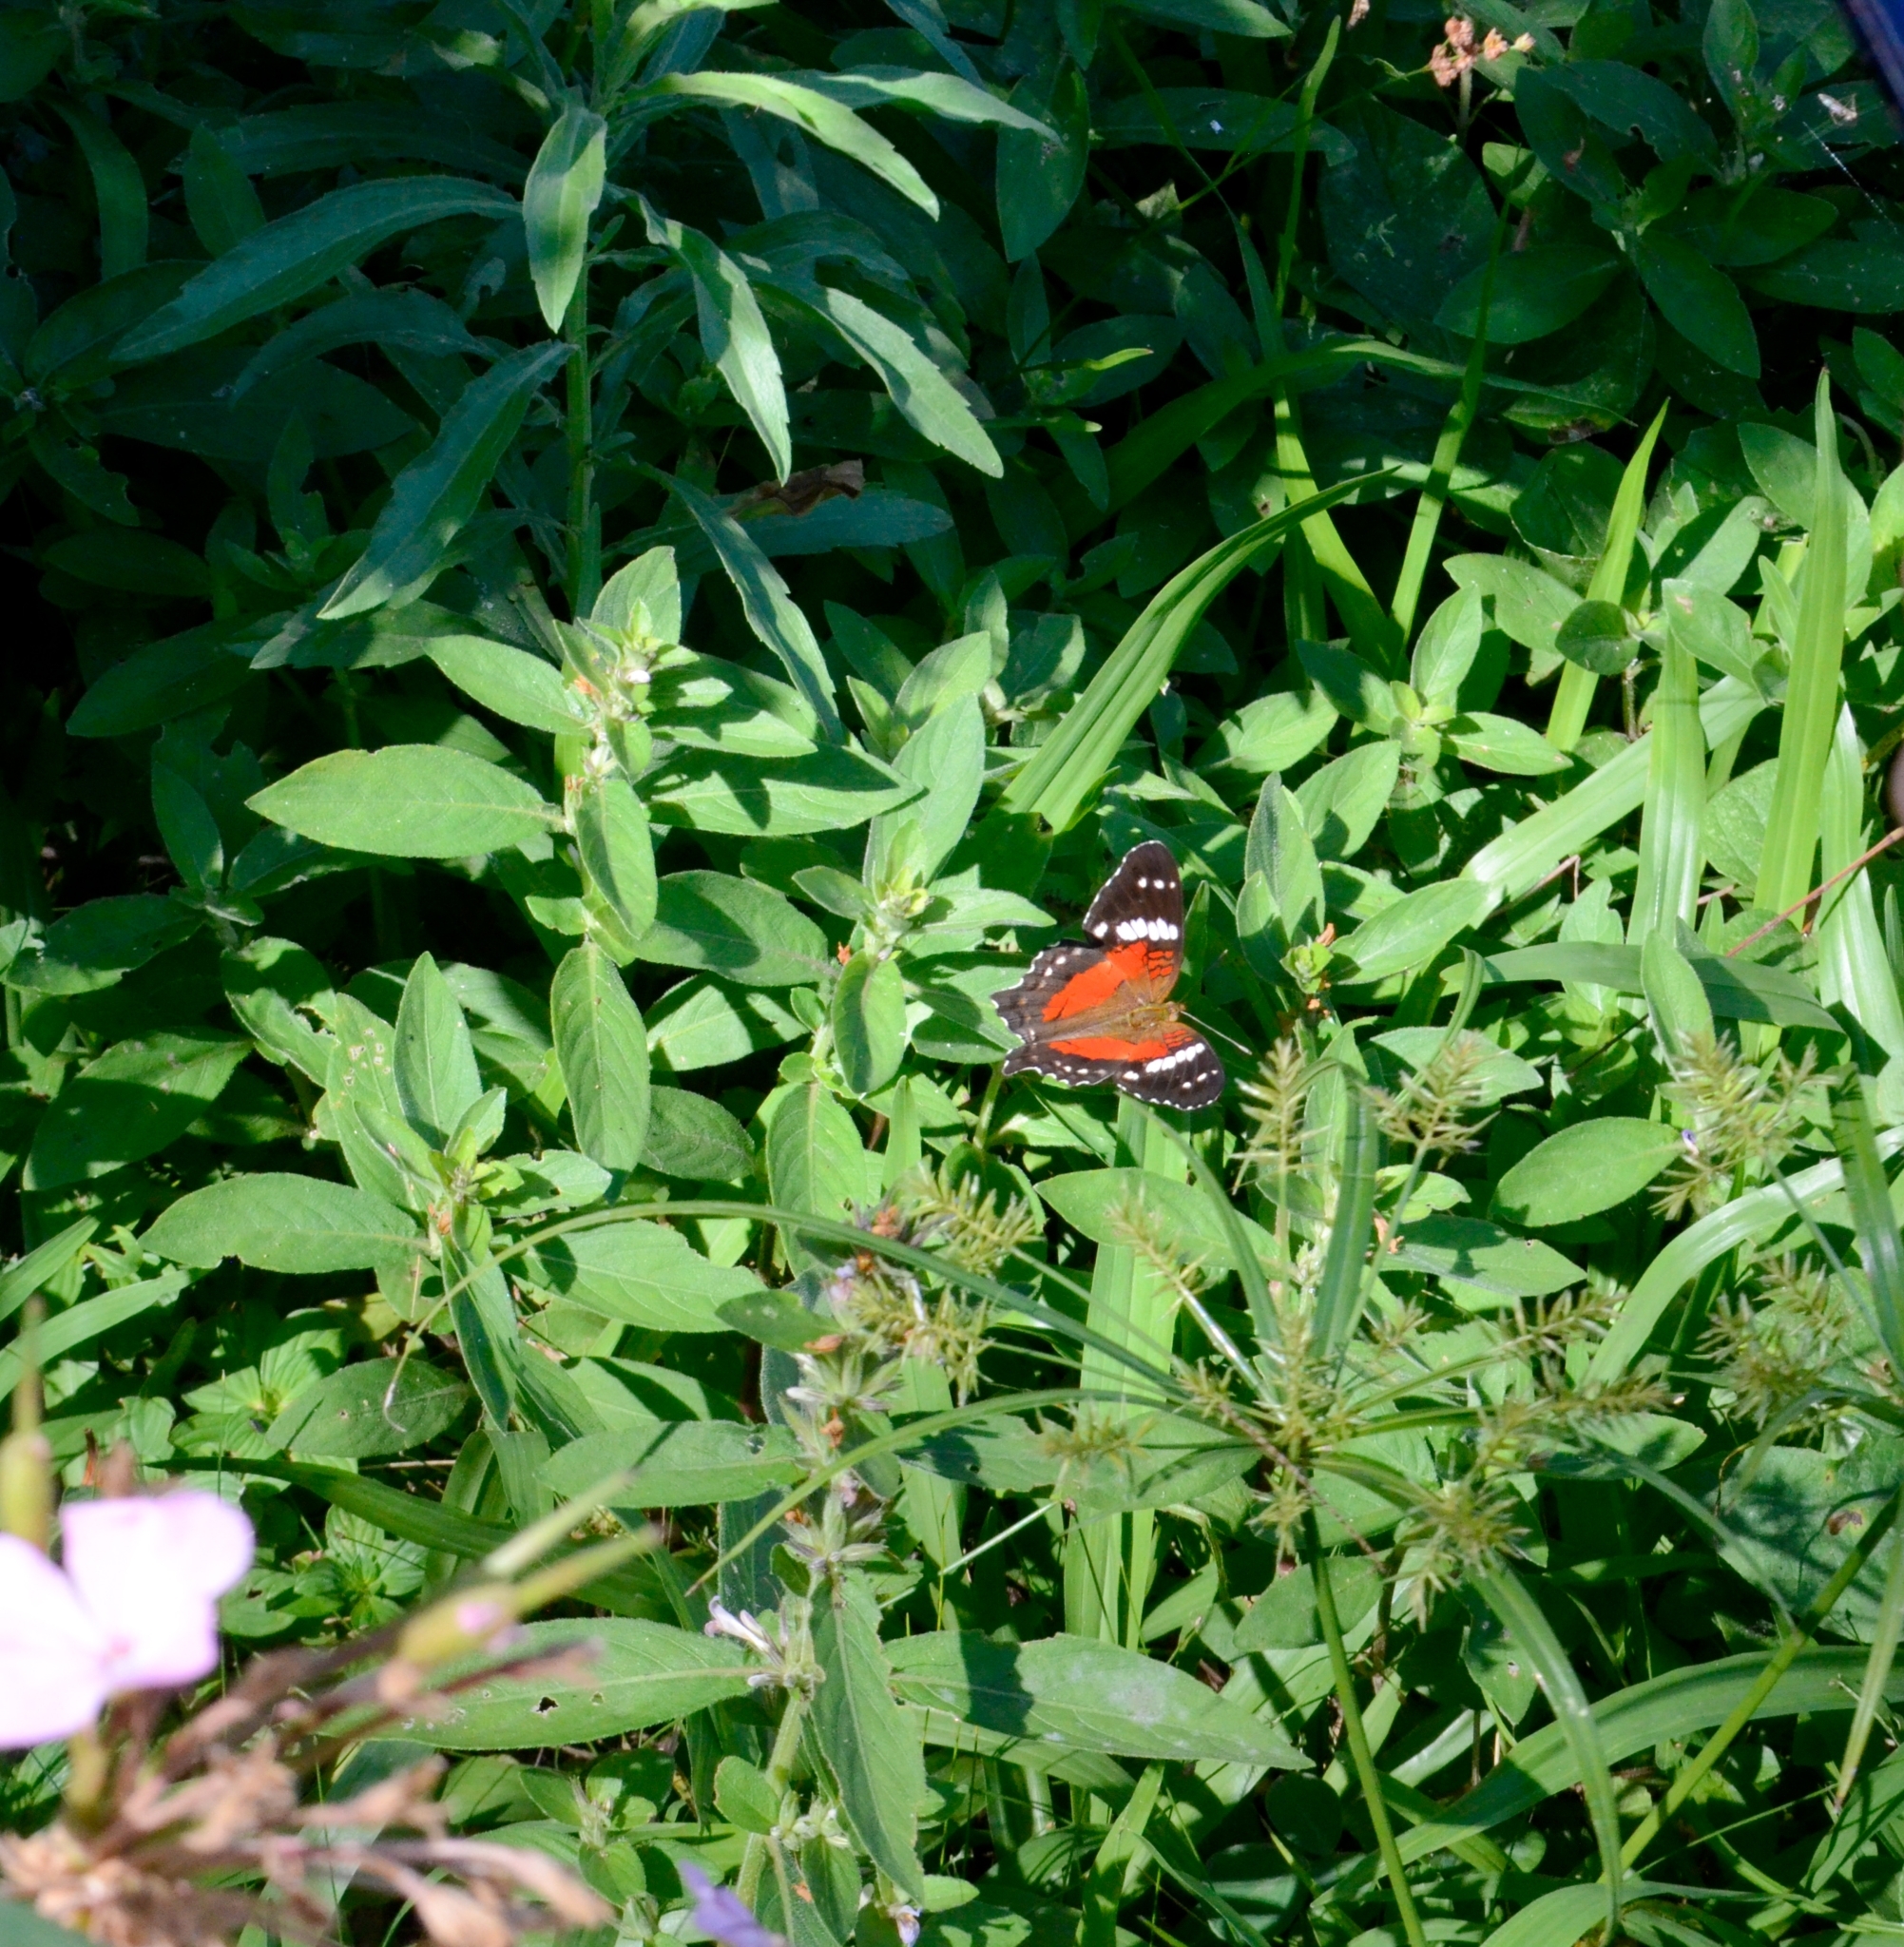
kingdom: Animalia
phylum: Arthropoda
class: Insecta
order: Lepidoptera
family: Nymphalidae
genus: Anartia
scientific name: Anartia amathea
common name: Red peacock
